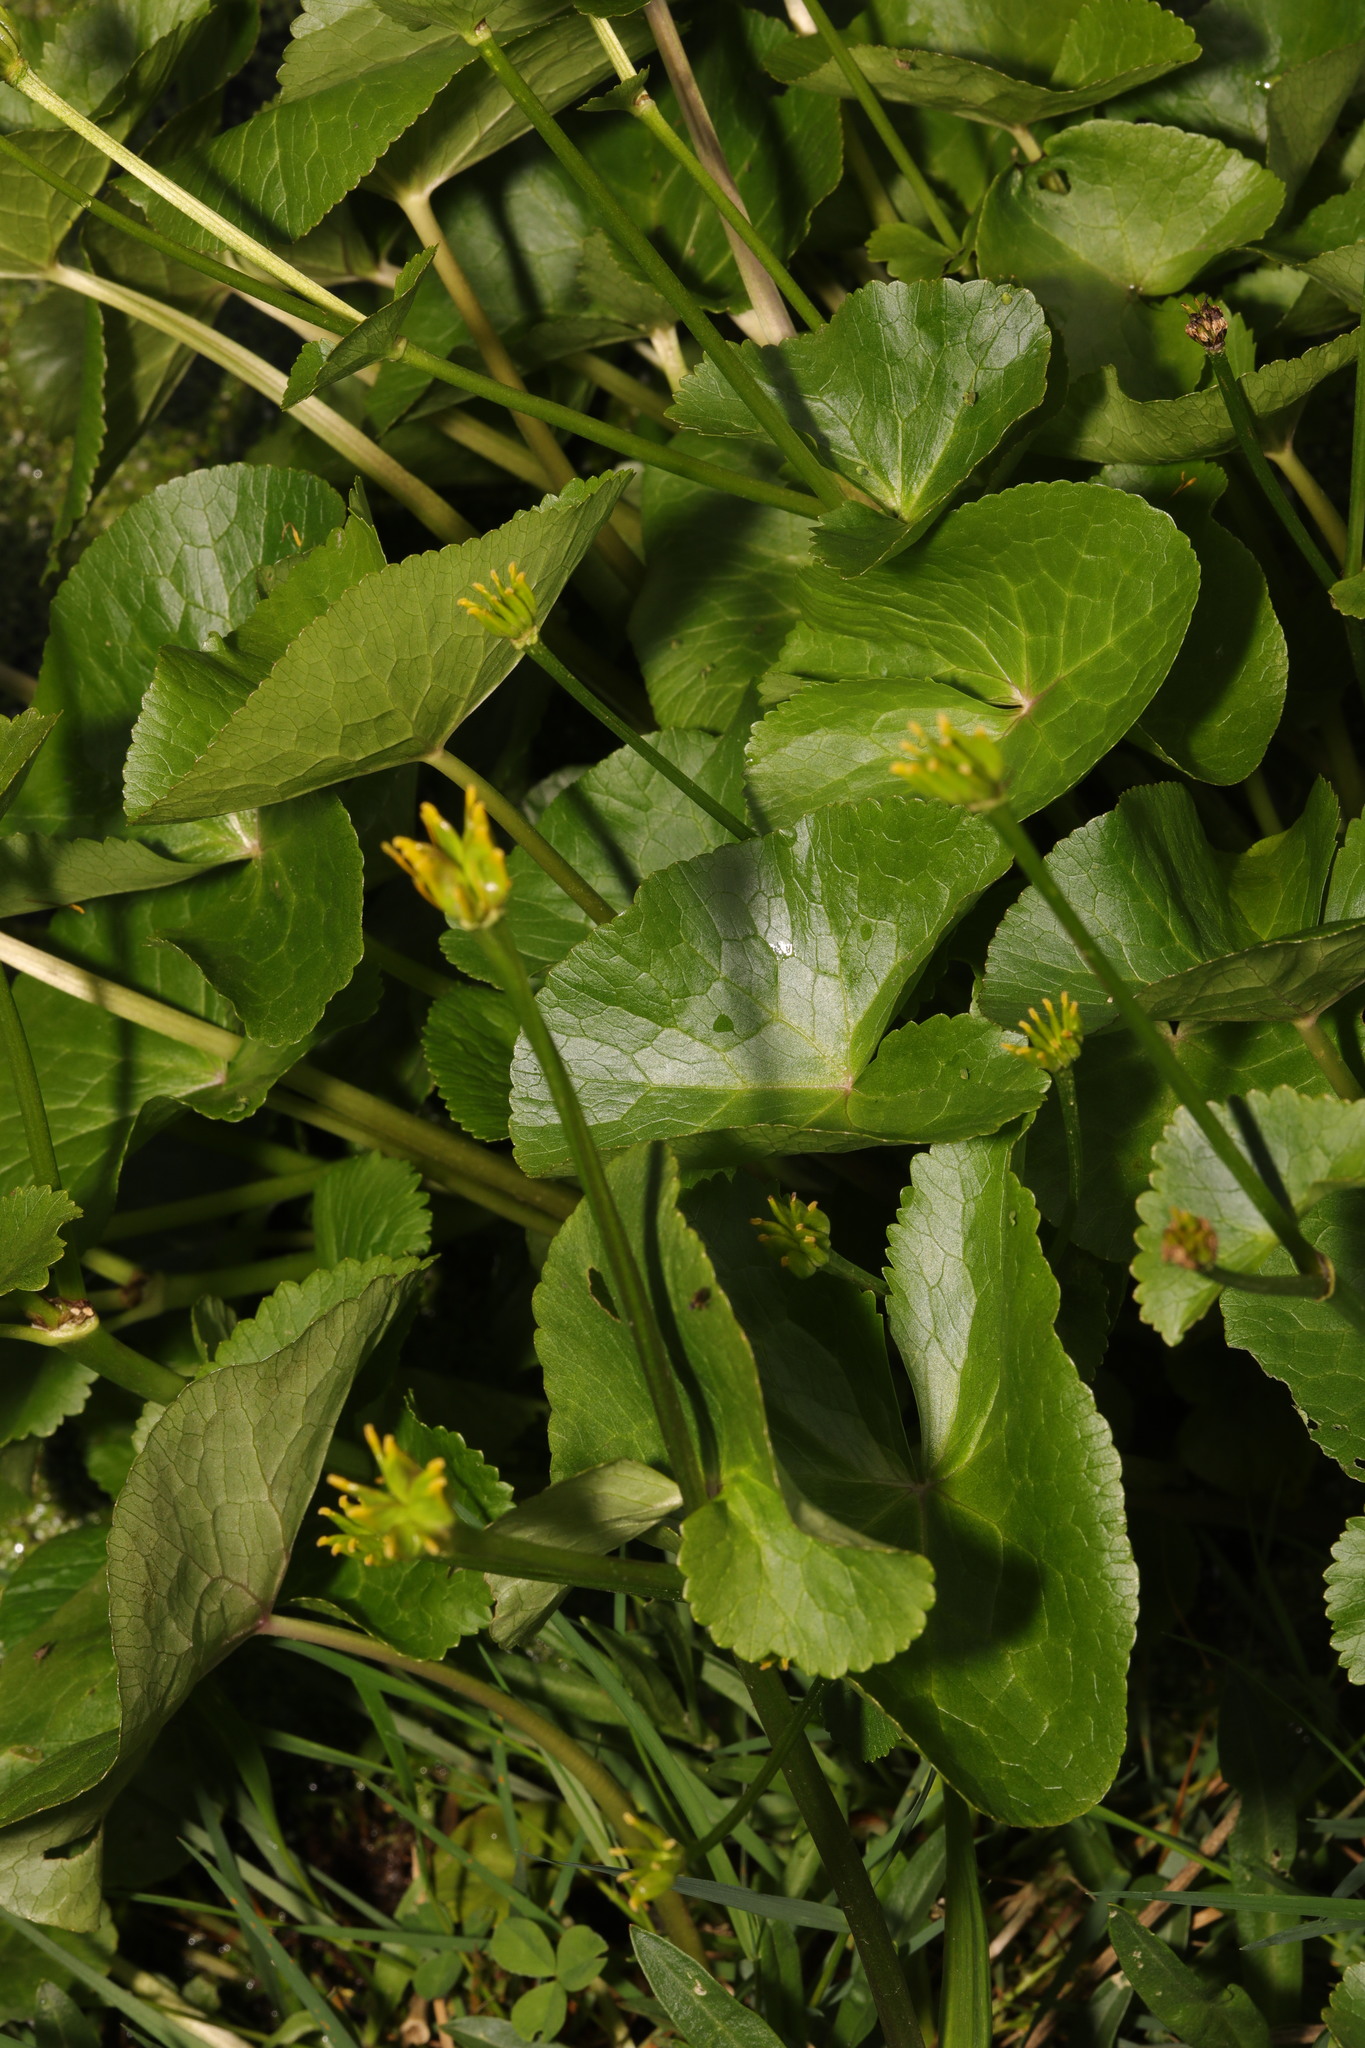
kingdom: Plantae
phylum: Tracheophyta
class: Magnoliopsida
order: Ranunculales
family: Ranunculaceae
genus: Caltha
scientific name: Caltha palustris
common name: Marsh marigold
